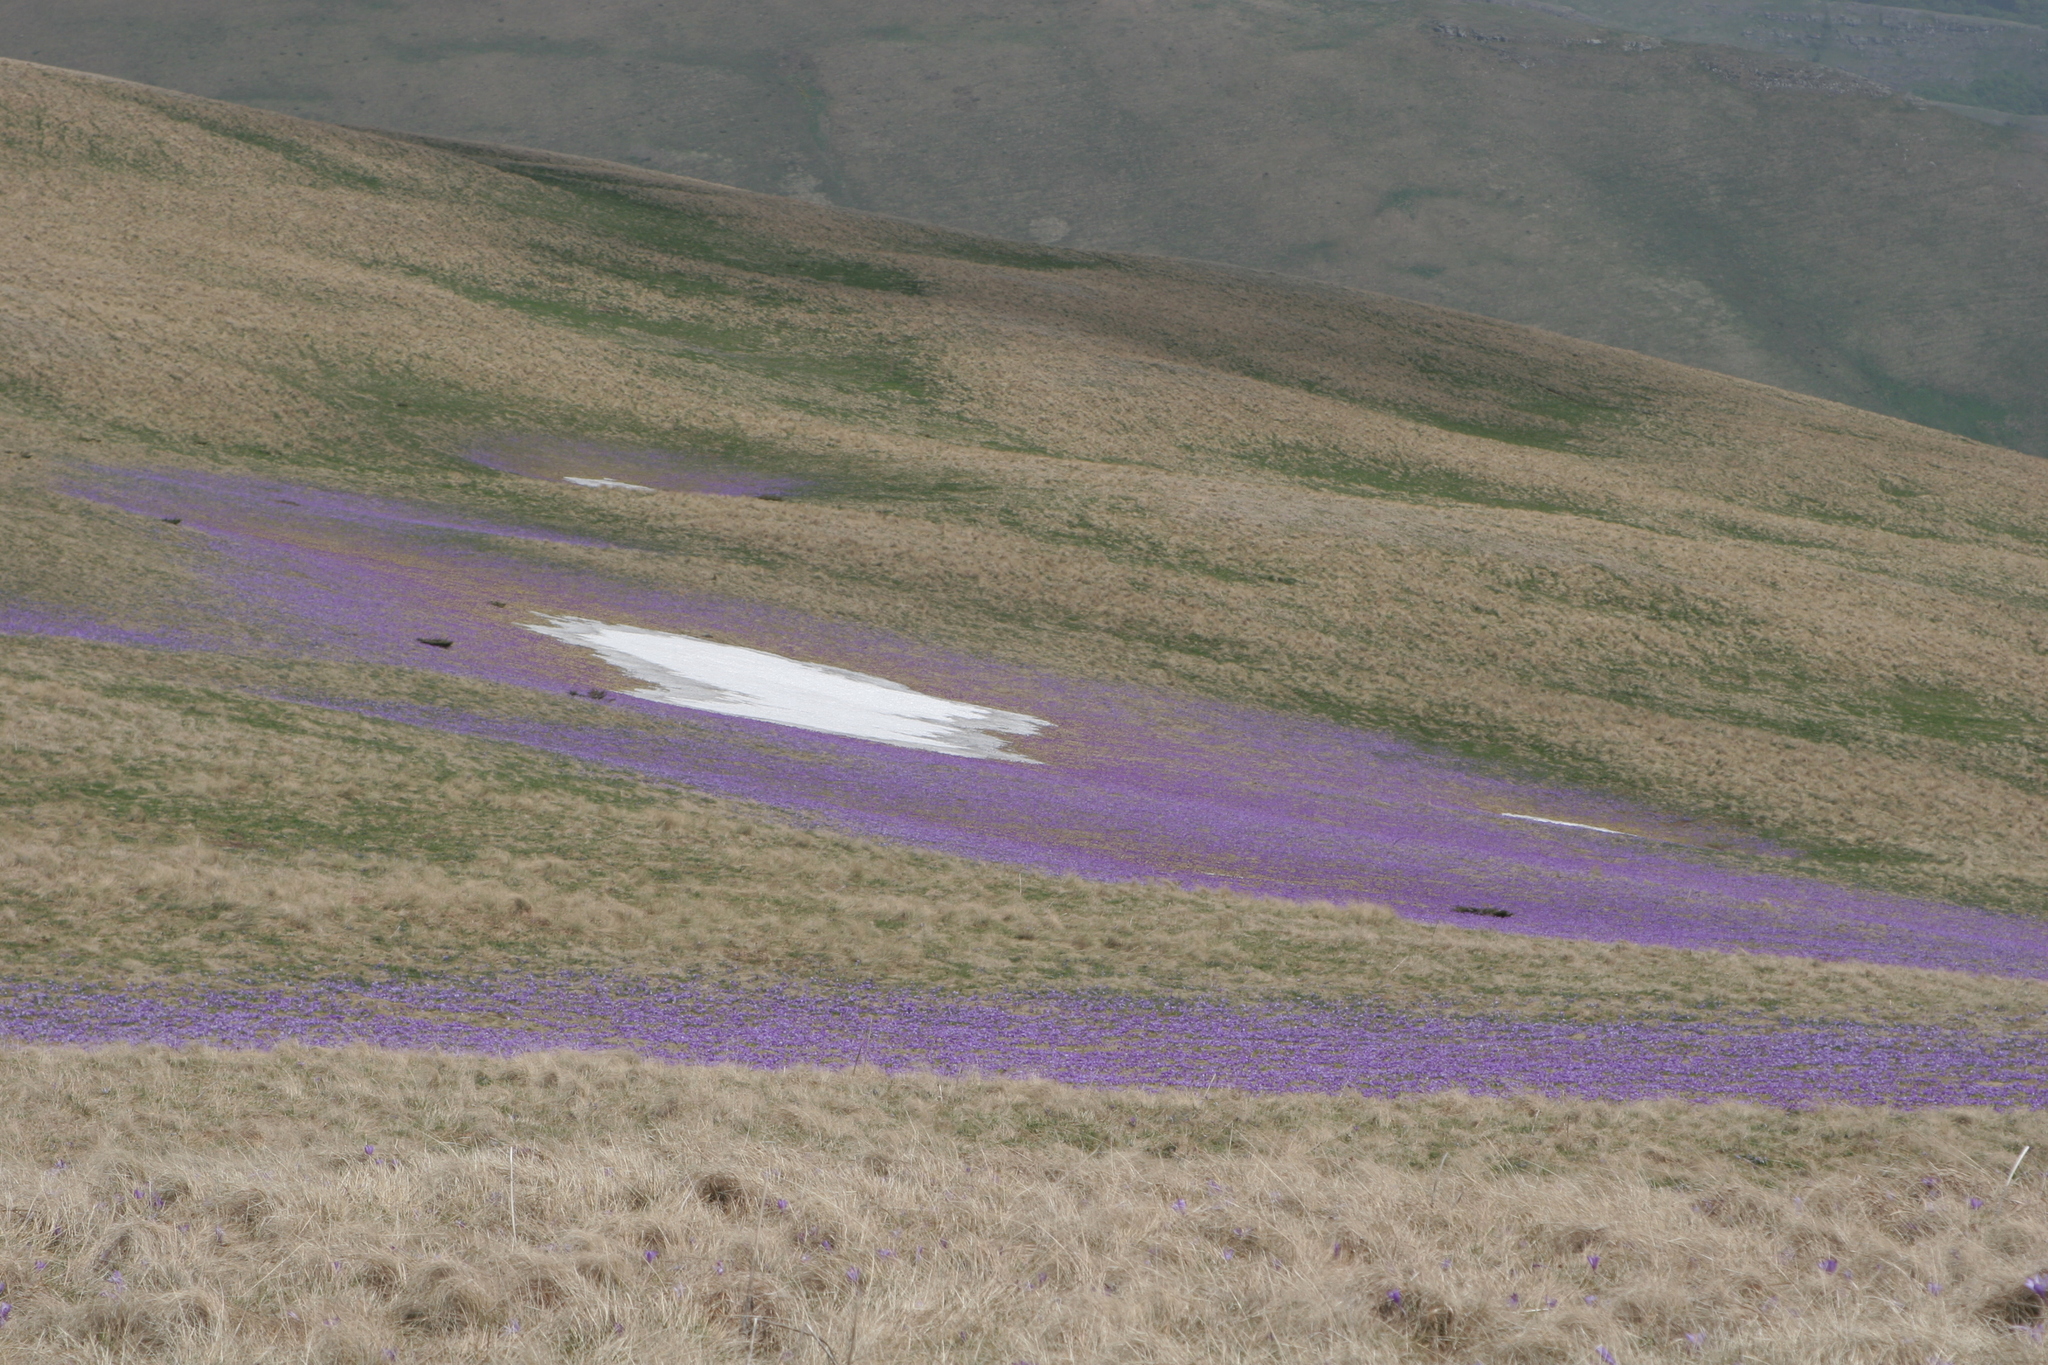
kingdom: Plantae
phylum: Tracheophyta
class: Liliopsida
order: Asparagales
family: Iridaceae
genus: Crocus
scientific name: Crocus veluchensis
